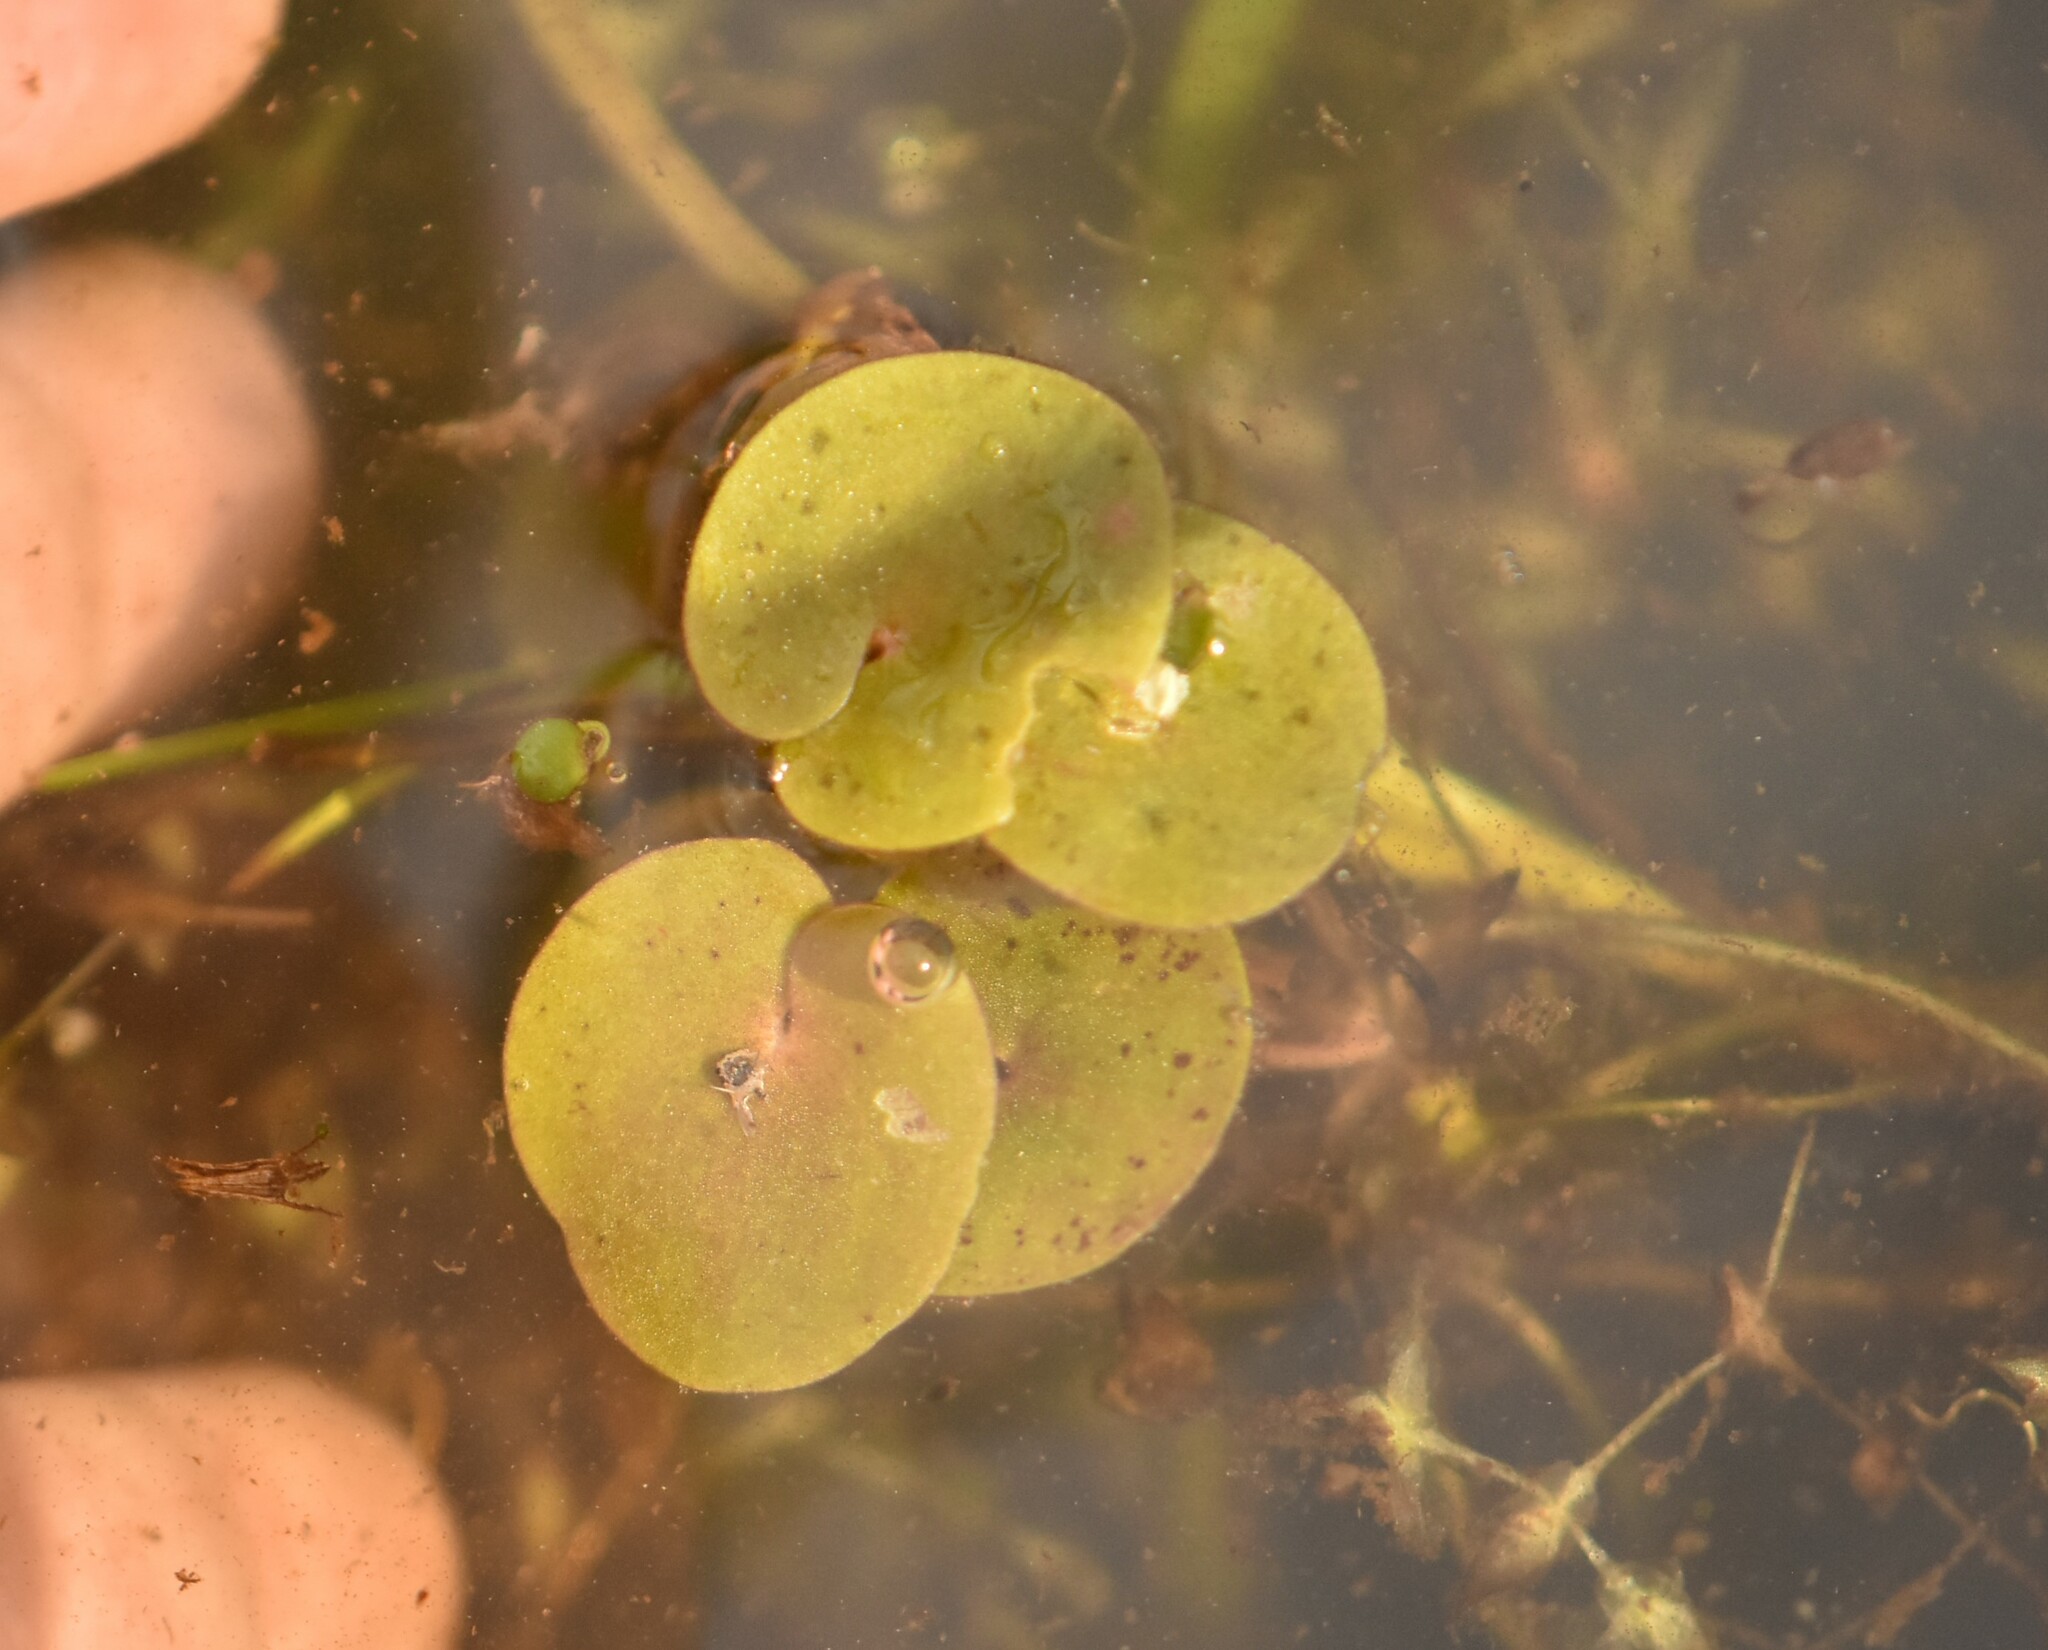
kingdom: Plantae
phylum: Tracheophyta
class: Liliopsida
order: Alismatales
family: Hydrocharitaceae
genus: Hydrocharis
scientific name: Hydrocharis morsus-ranae
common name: Frogbit
